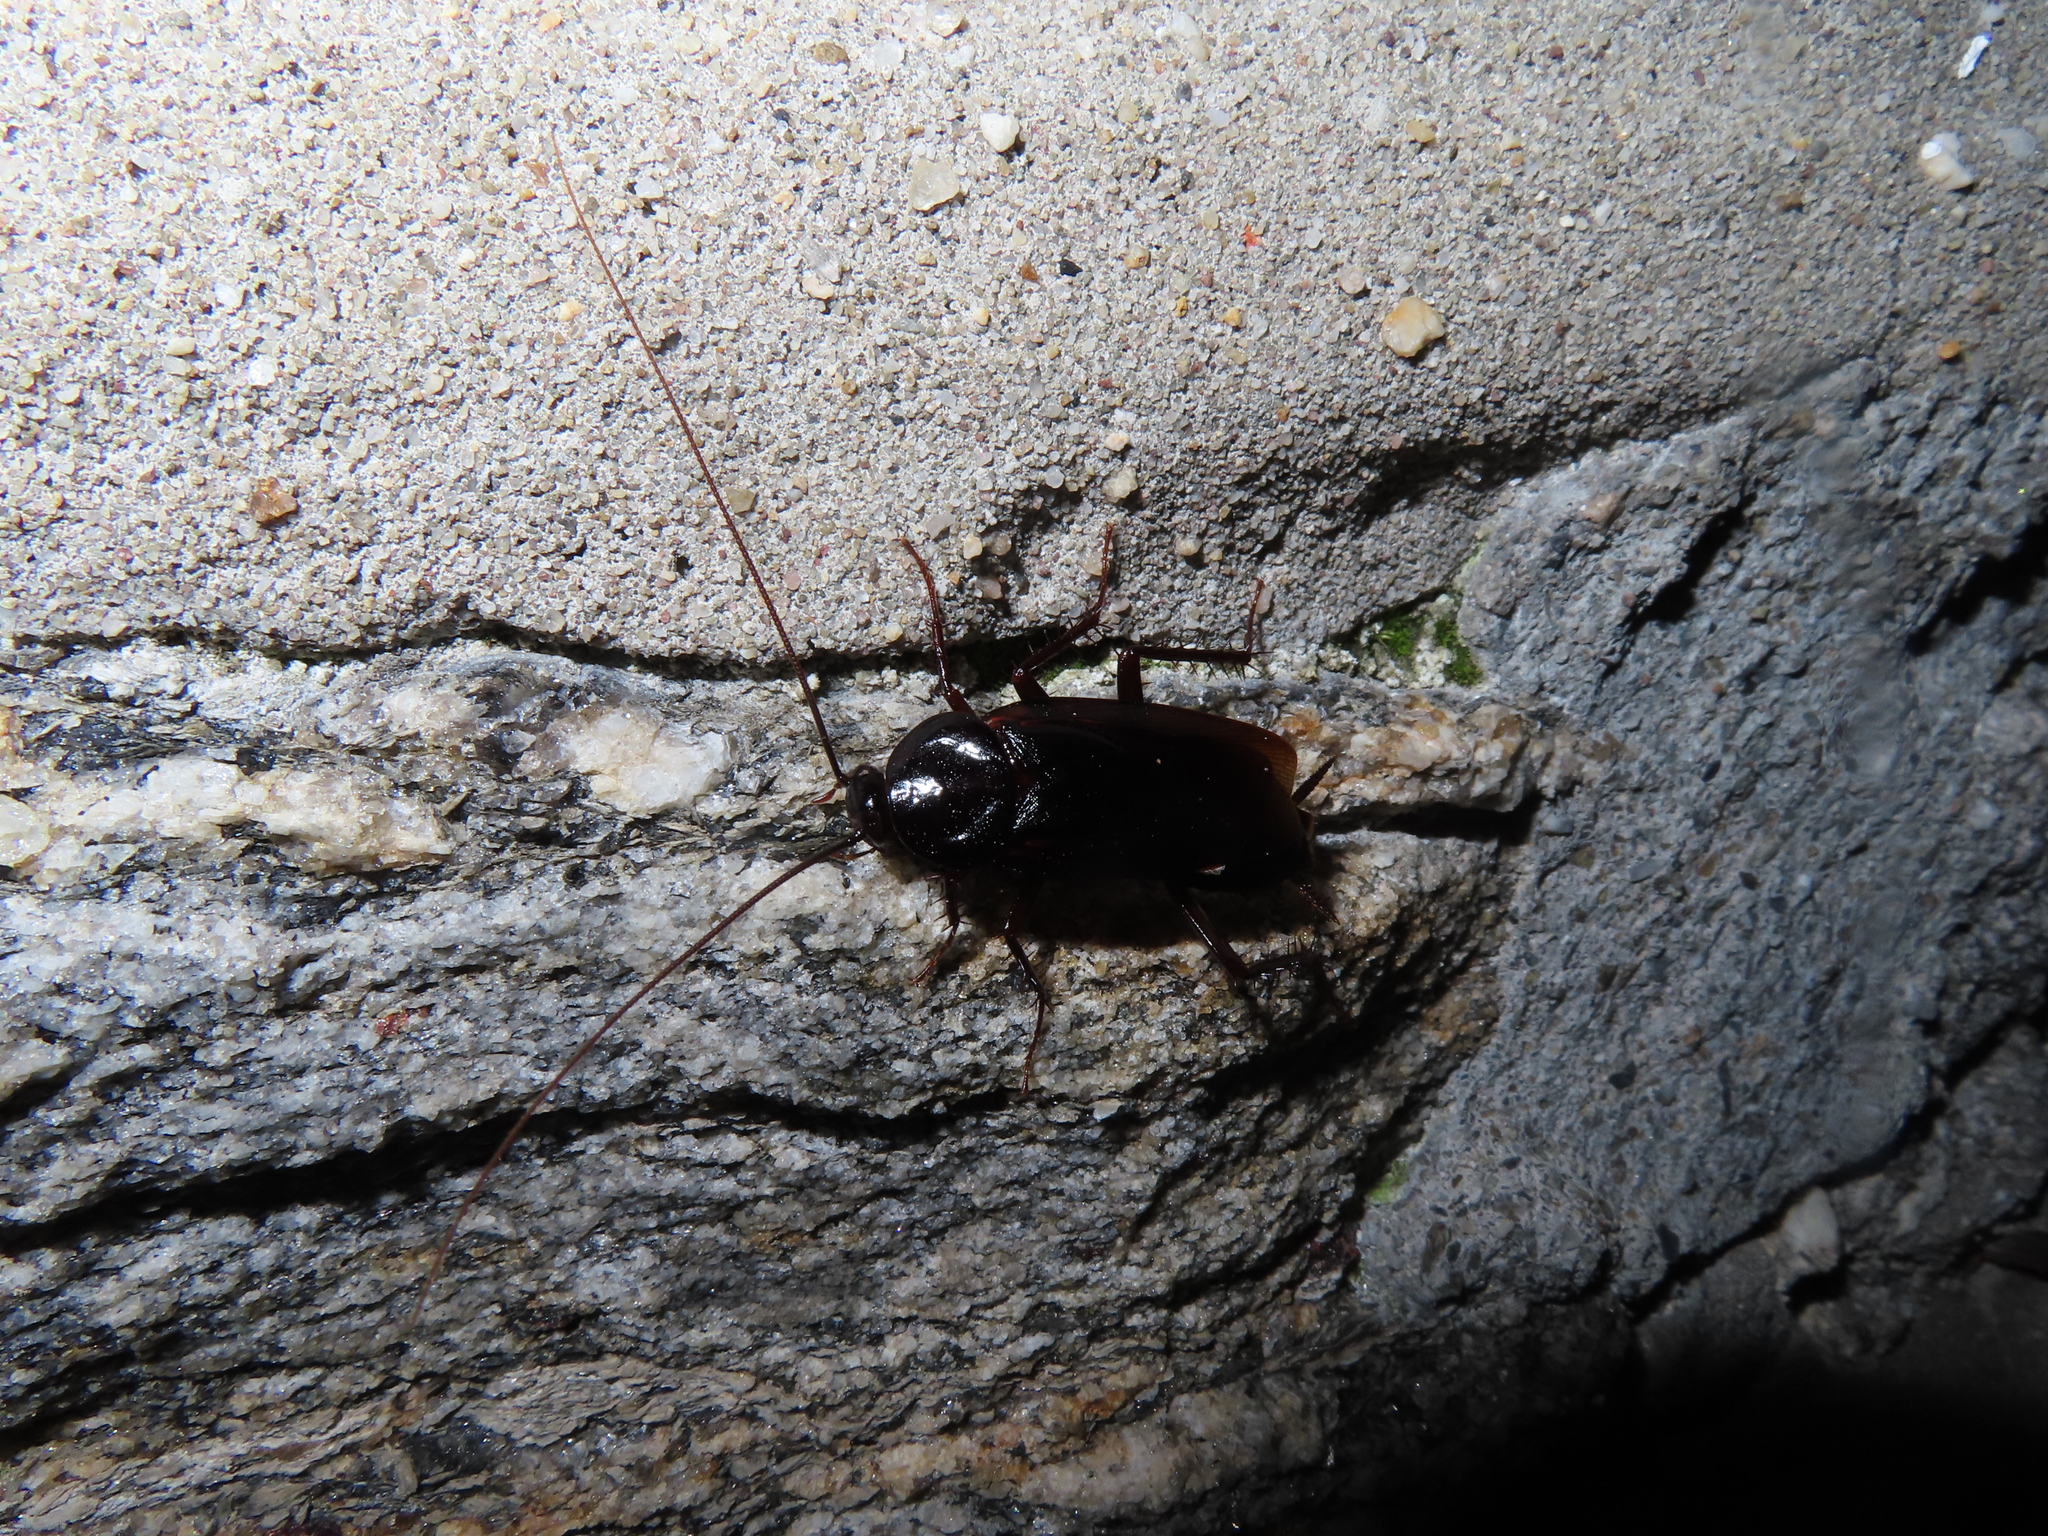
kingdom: Animalia
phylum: Arthropoda
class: Insecta
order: Blattodea
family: Blattidae
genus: Blatta
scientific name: Blatta orientalis
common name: Oriental cockroach
